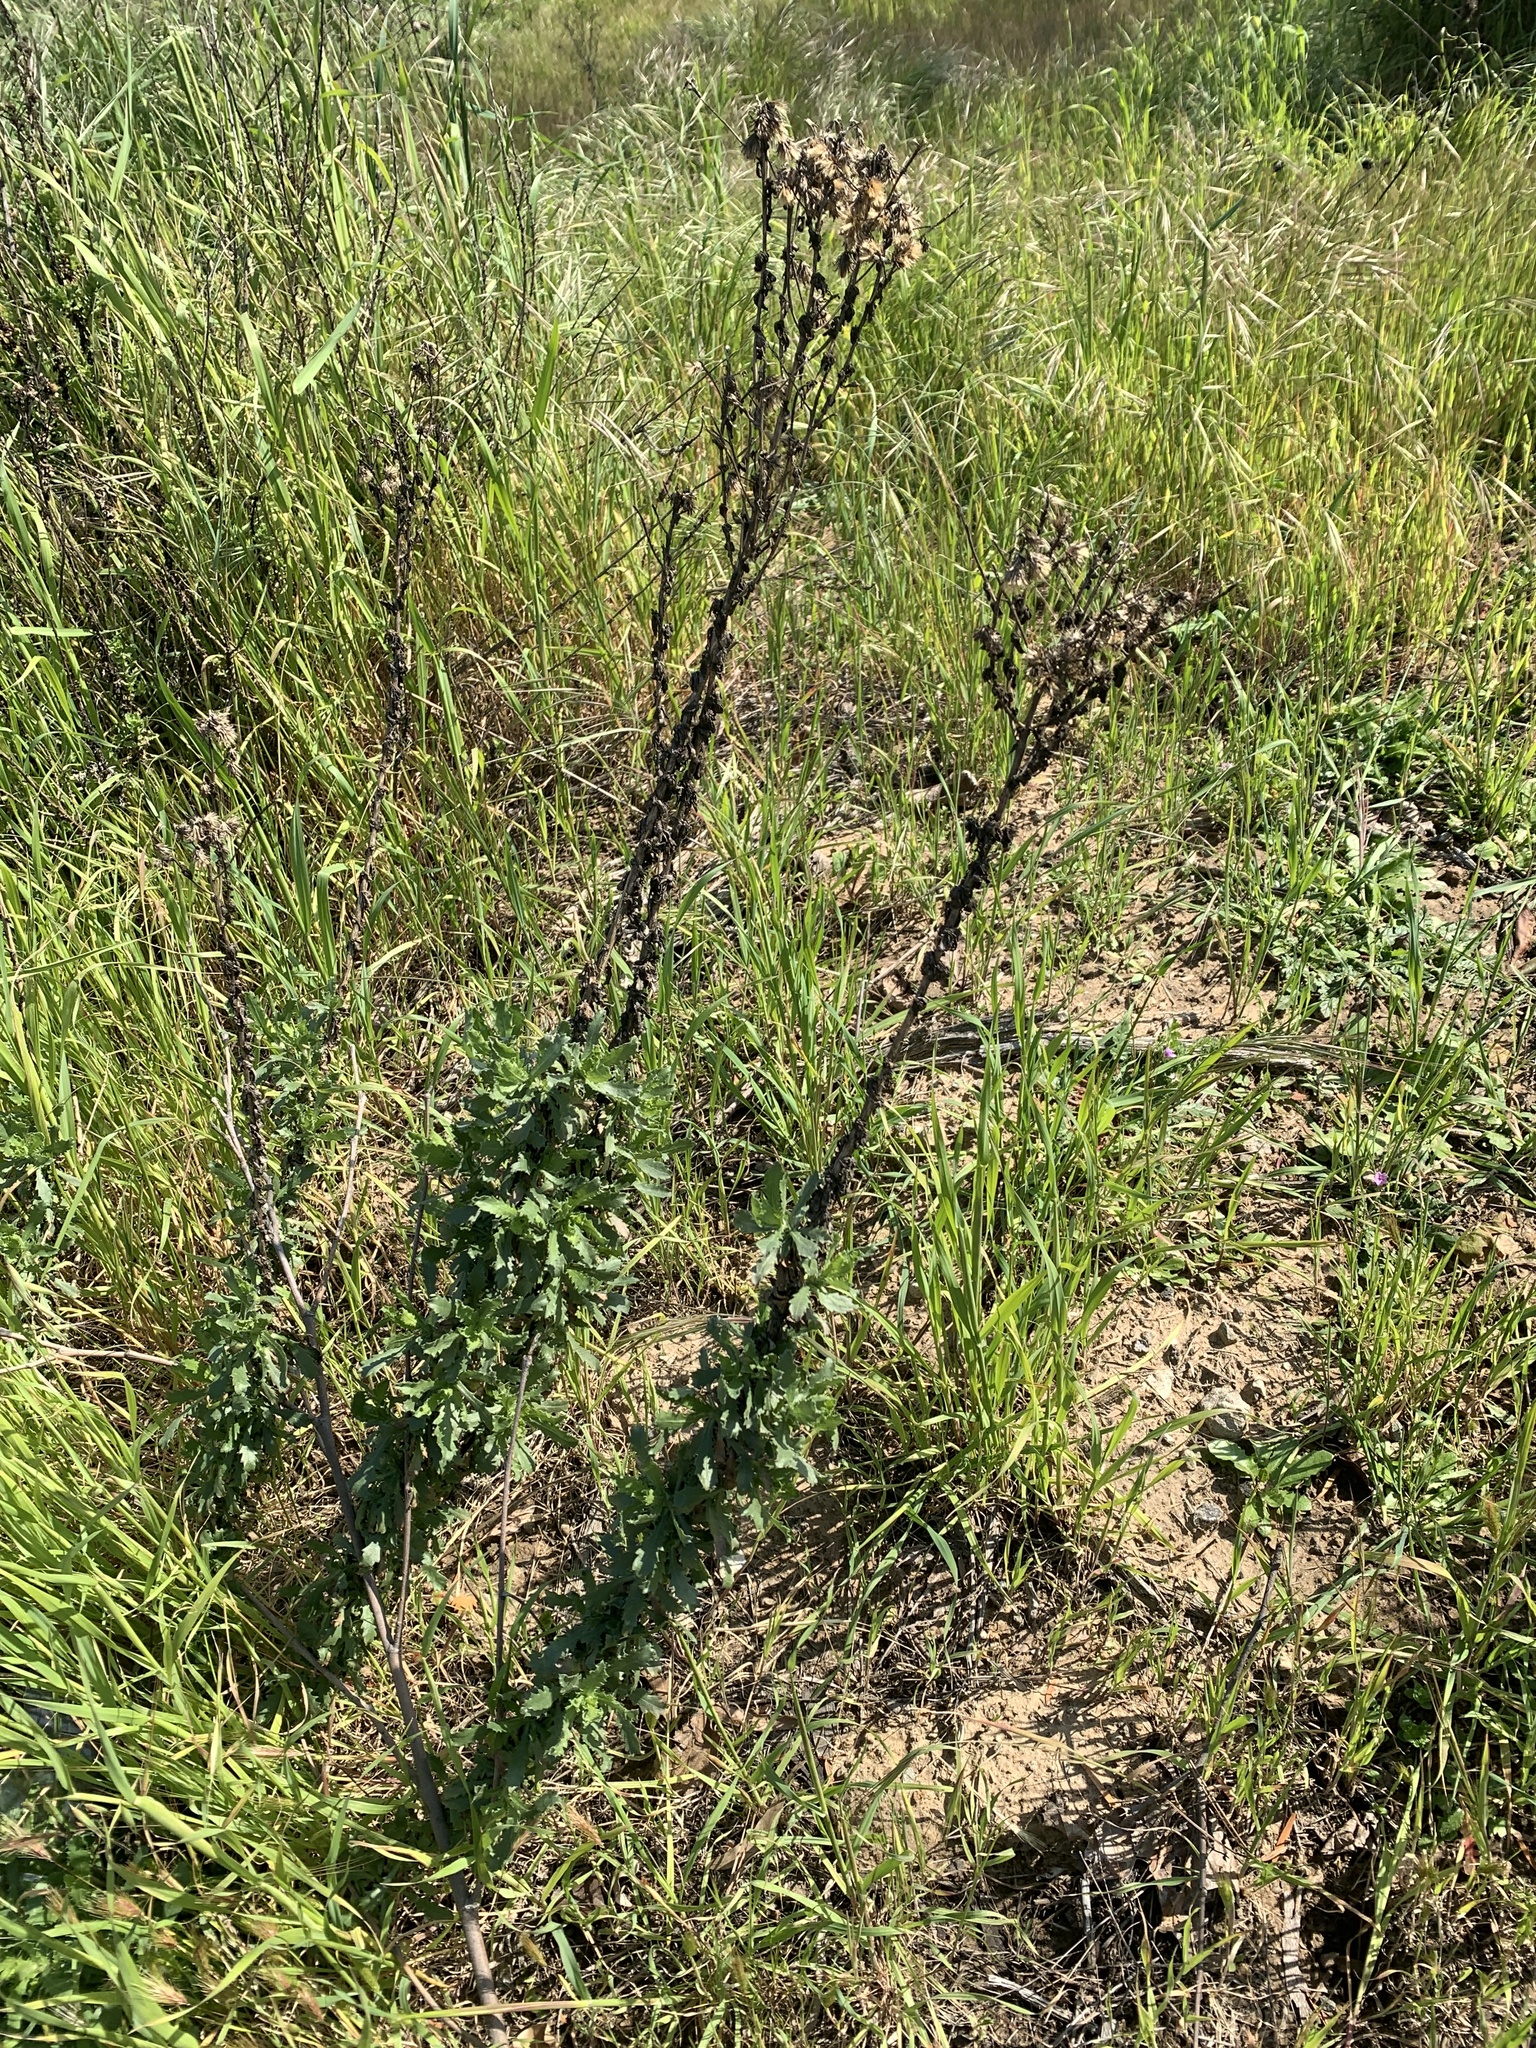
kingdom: Plantae
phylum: Tracheophyta
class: Magnoliopsida
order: Asterales
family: Asteraceae
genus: Isocoma
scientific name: Isocoma menziesii
